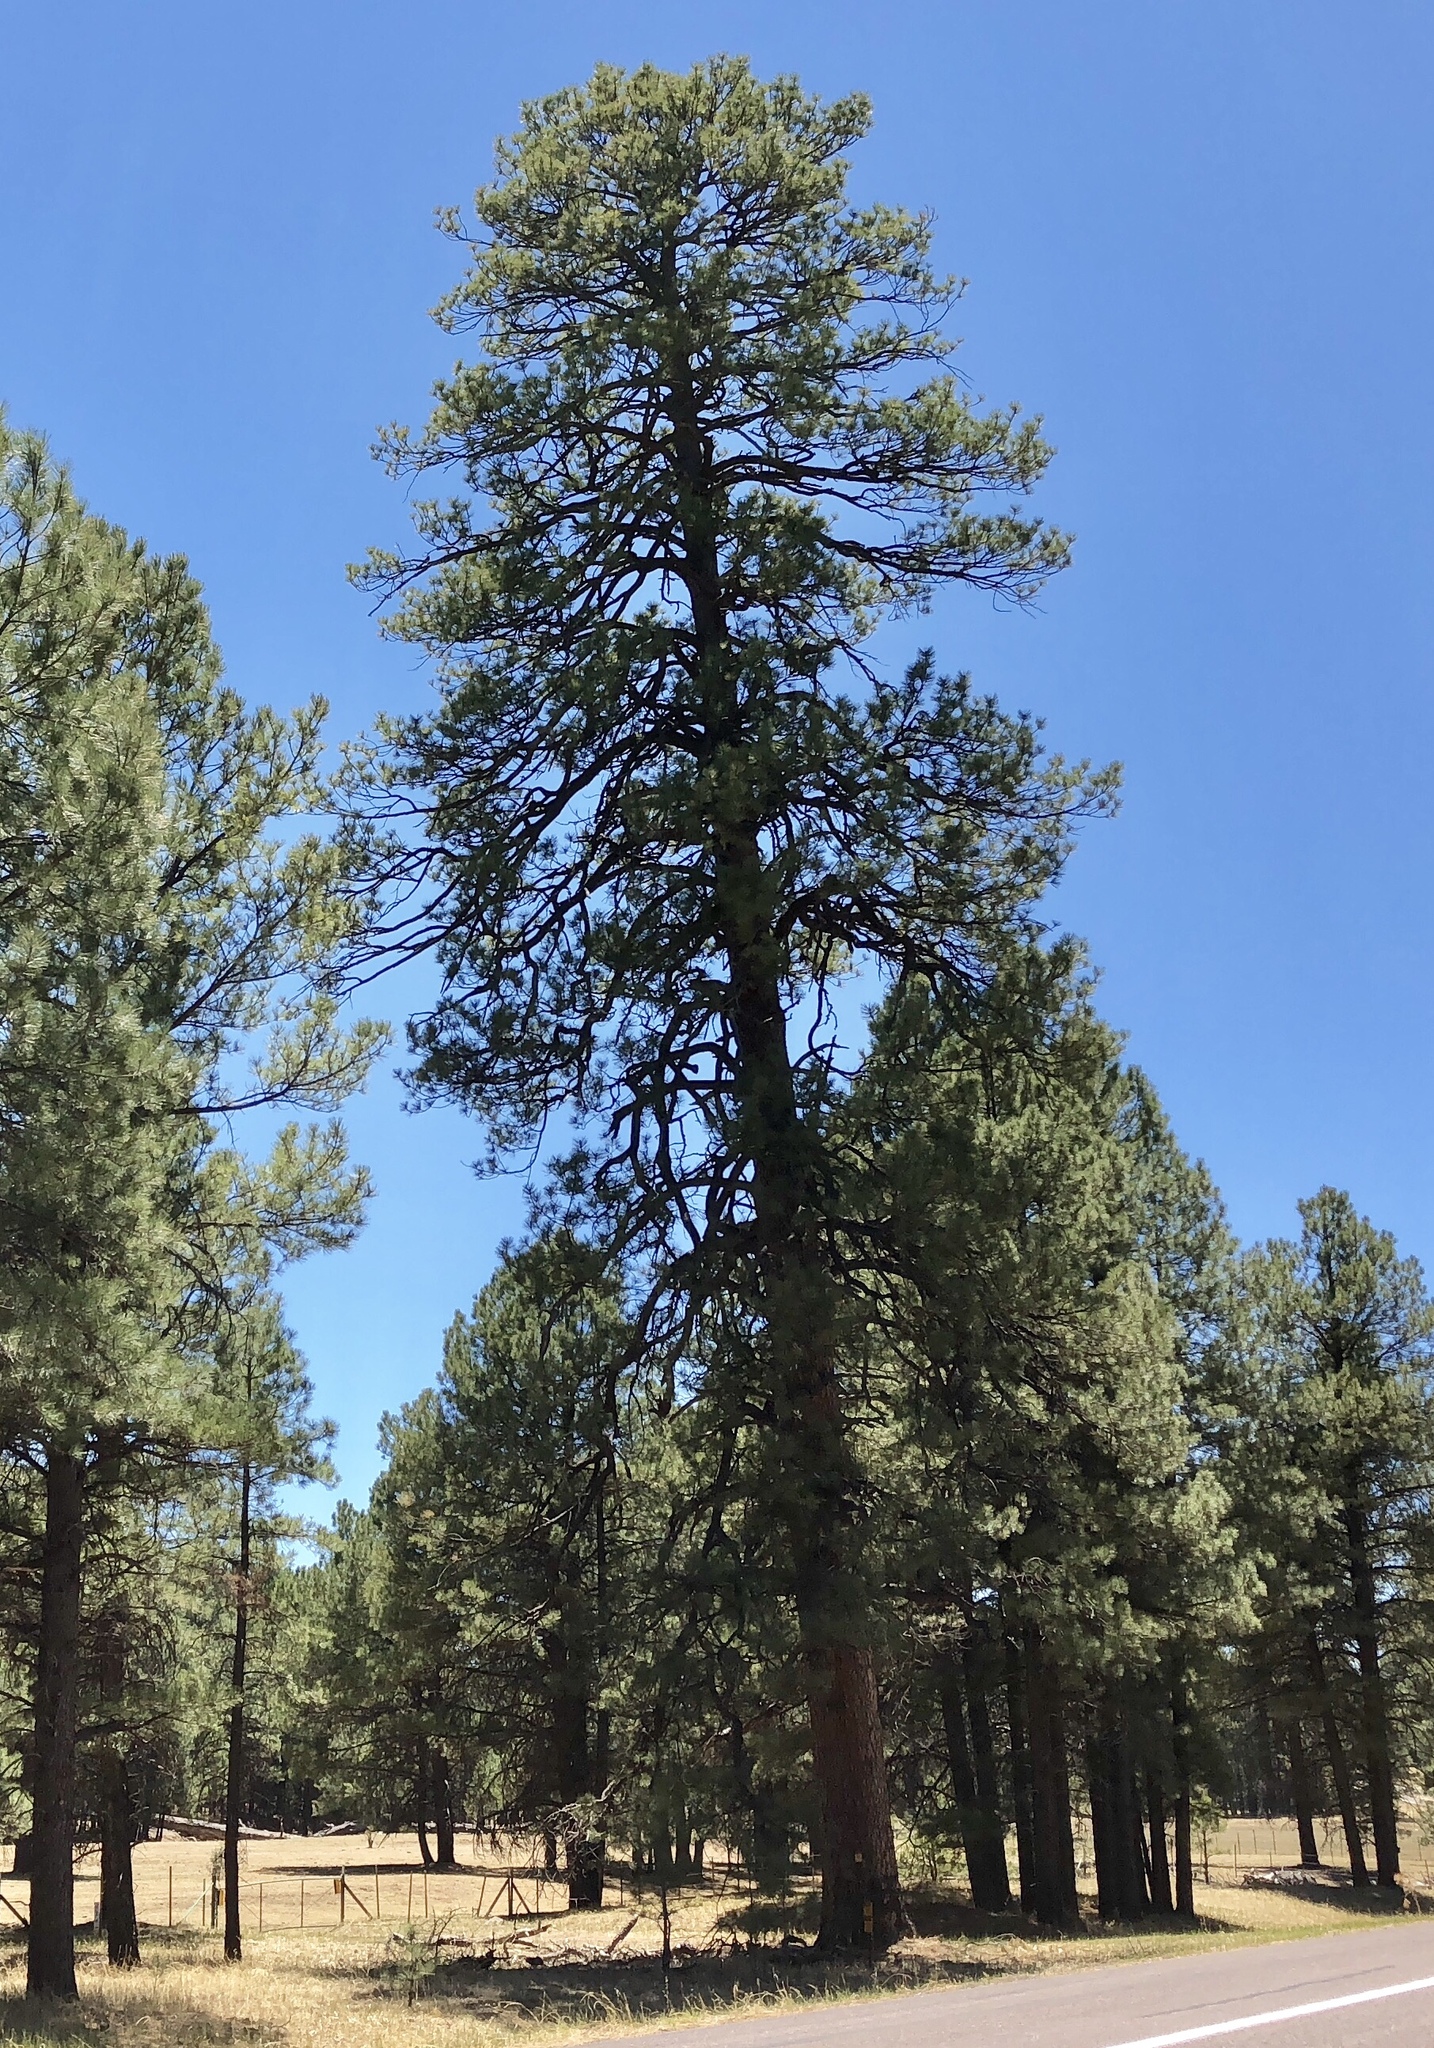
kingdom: Plantae
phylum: Tracheophyta
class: Pinopsida
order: Pinales
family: Pinaceae
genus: Pinus
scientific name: Pinus ponderosa
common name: Western yellow-pine
